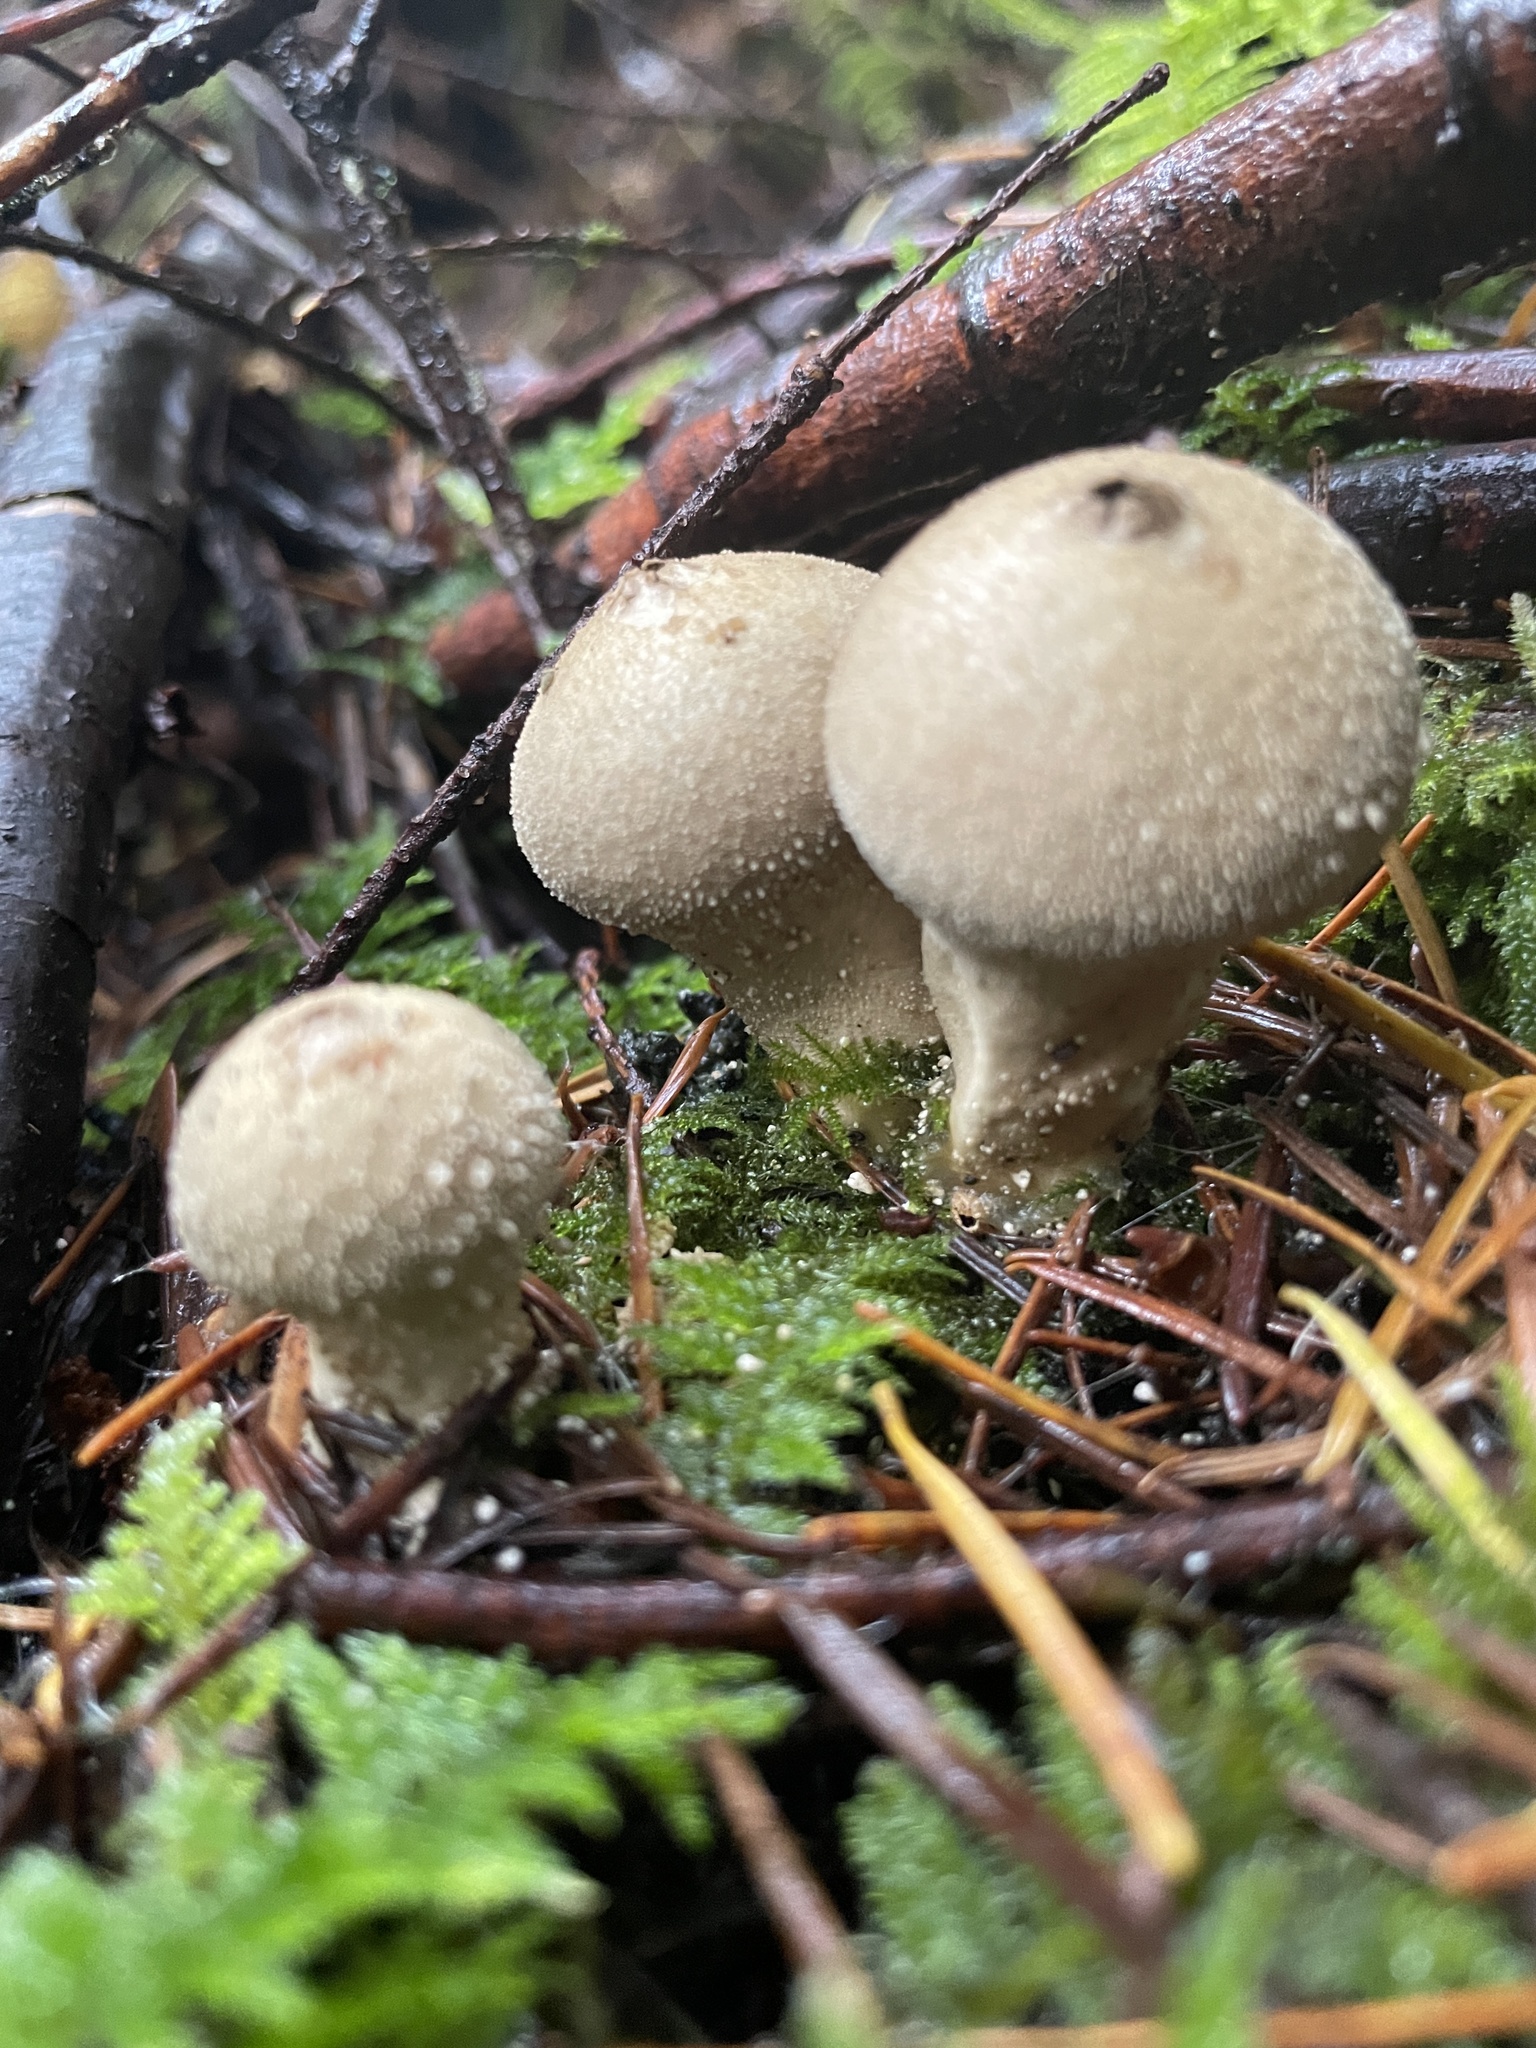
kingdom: Fungi
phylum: Basidiomycota
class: Agaricomycetes
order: Agaricales
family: Lycoperdaceae
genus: Lycoperdon
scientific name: Lycoperdon perlatum
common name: Common puffball
